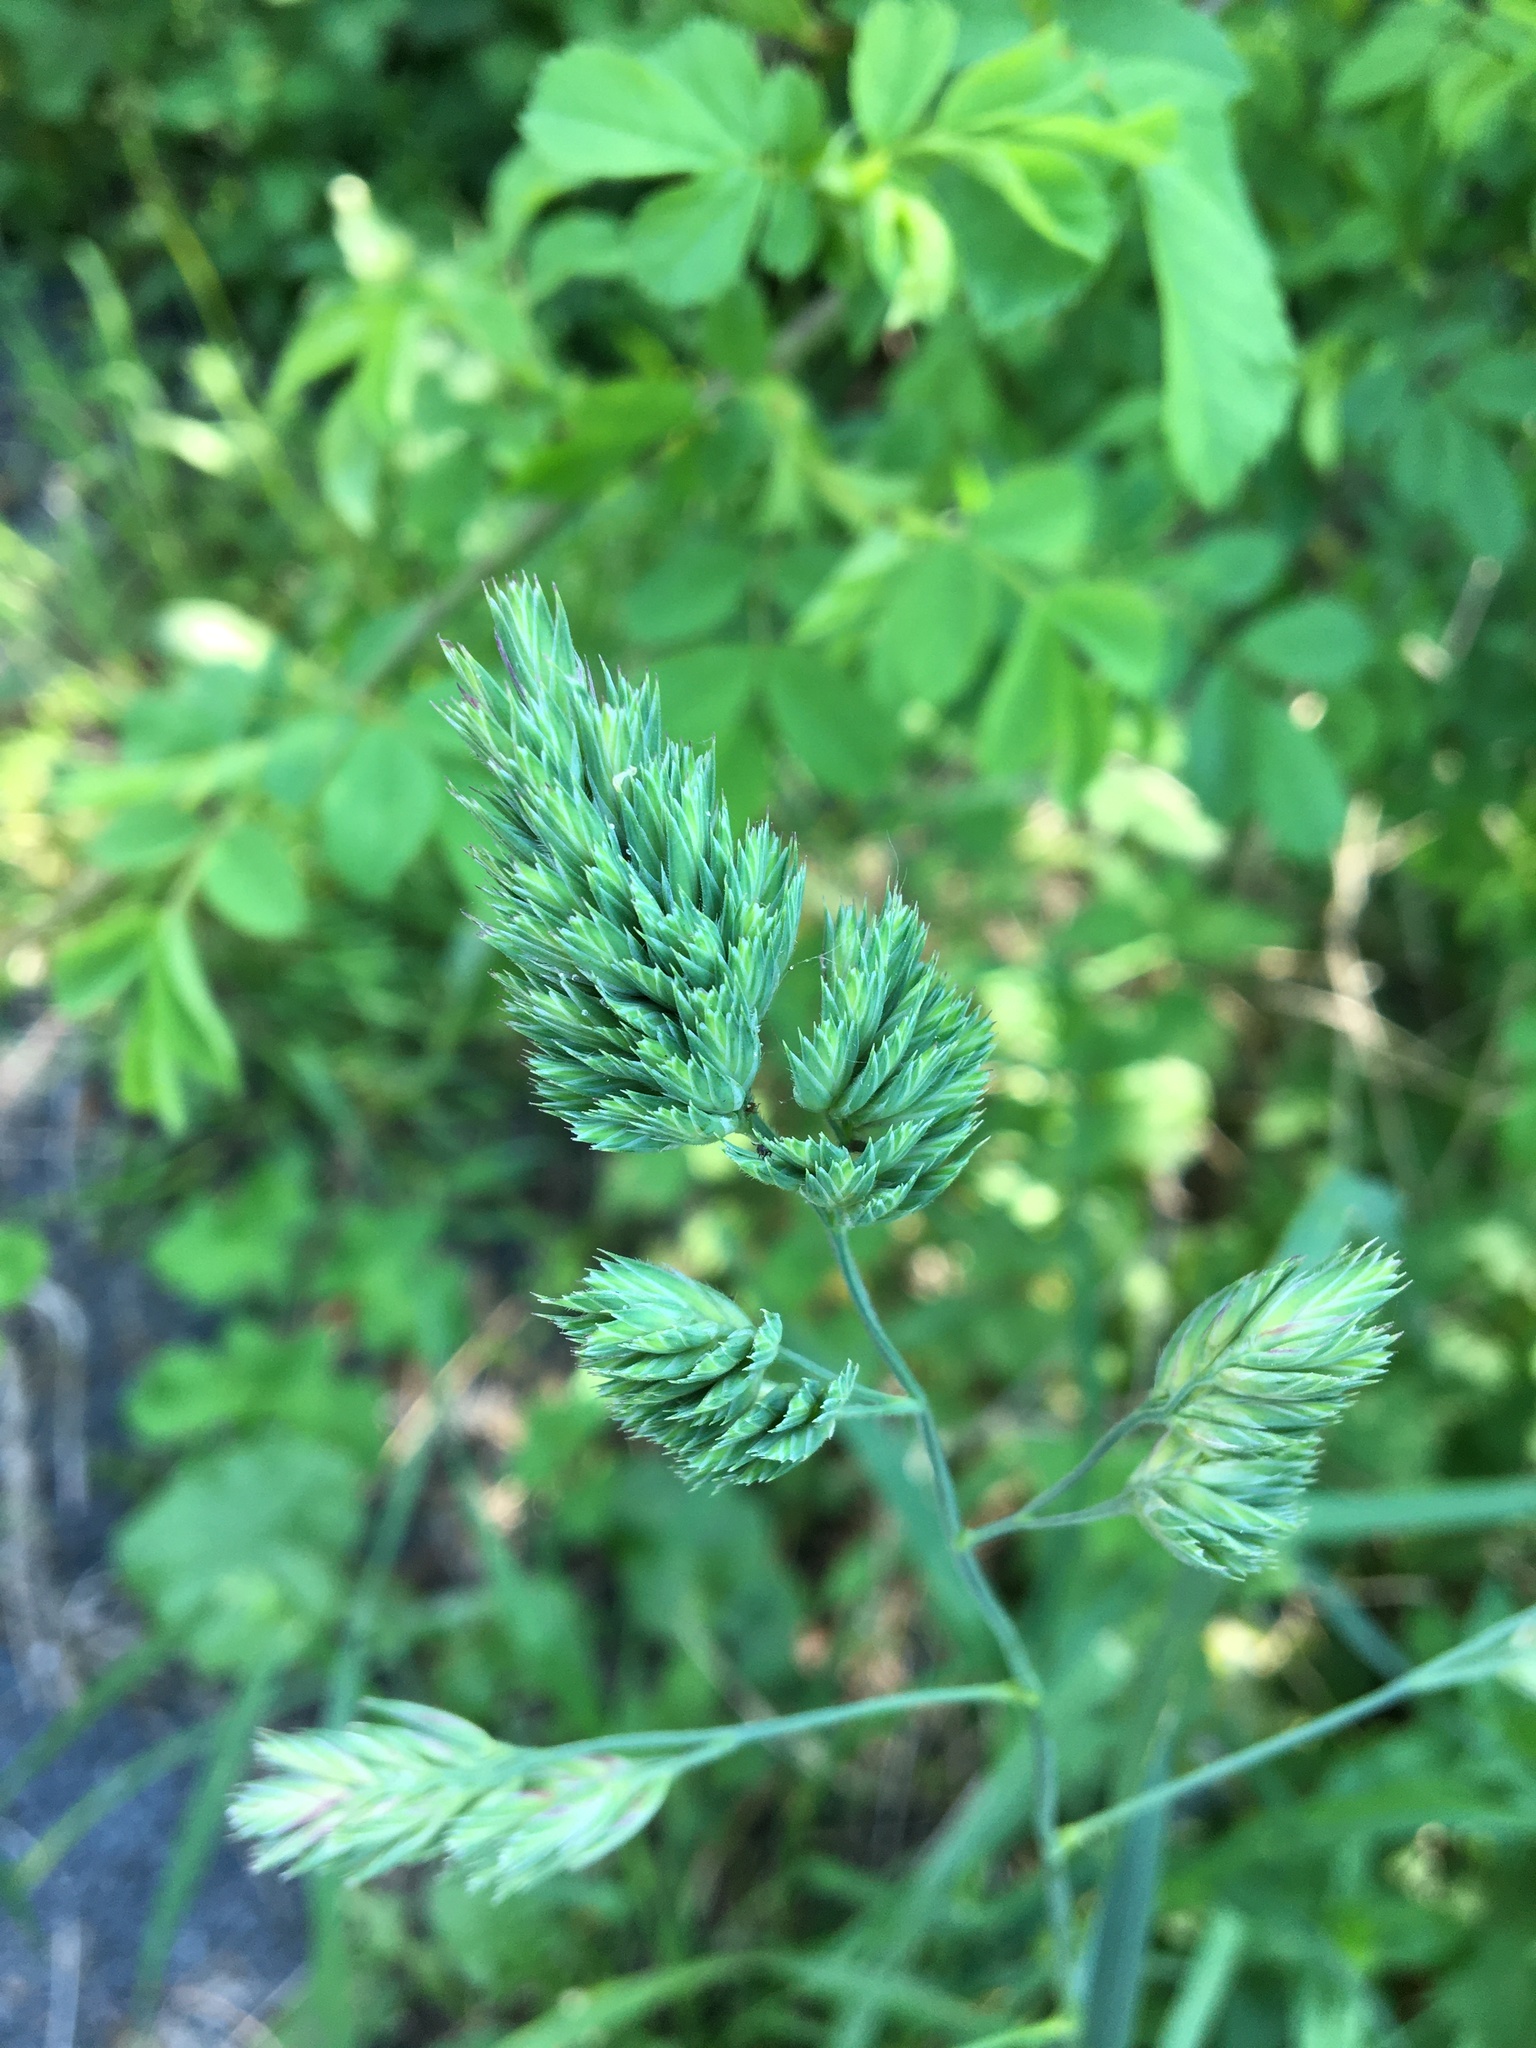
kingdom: Plantae
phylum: Tracheophyta
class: Liliopsida
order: Poales
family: Poaceae
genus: Dactylis
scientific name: Dactylis glomerata
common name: Orchardgrass
